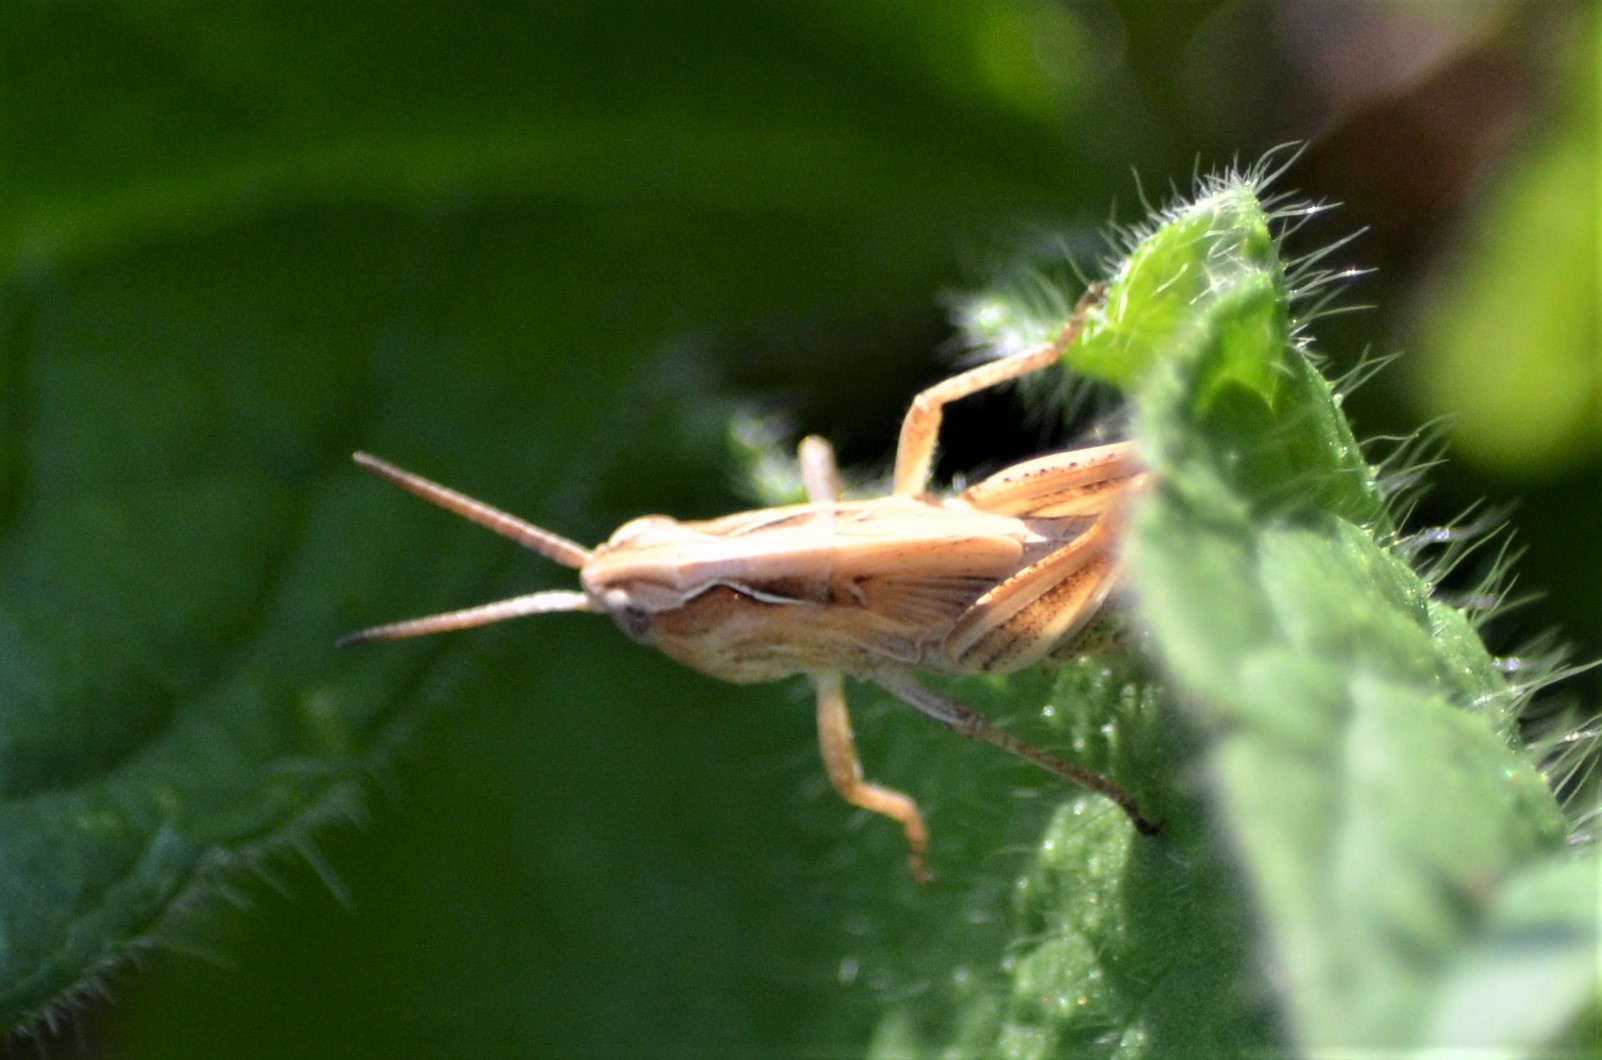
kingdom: Animalia
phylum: Arthropoda
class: Insecta
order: Orthoptera
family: Acrididae
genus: Gomphocerippus
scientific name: Gomphocerippus rufus
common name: Rufous grasshopper
